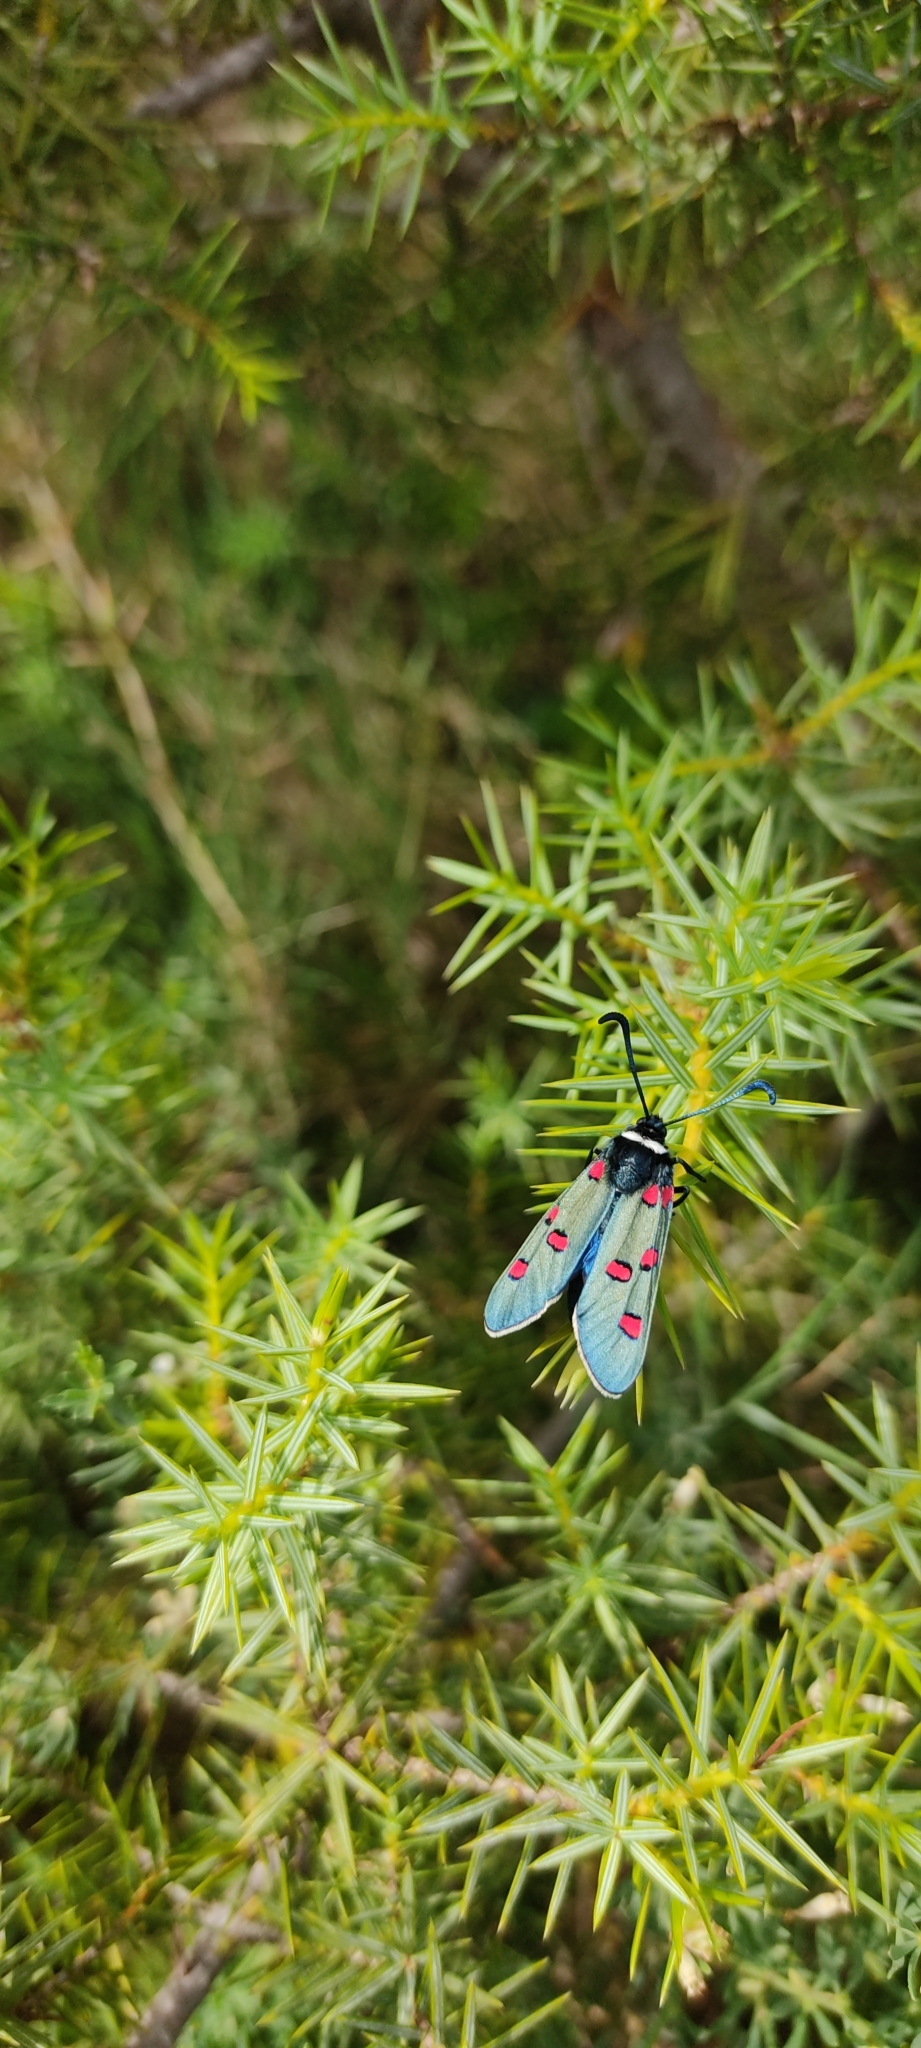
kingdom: Animalia
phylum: Arthropoda
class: Insecta
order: Lepidoptera
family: Zygaenidae
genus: Zygaena
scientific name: Zygaena lavandulae
